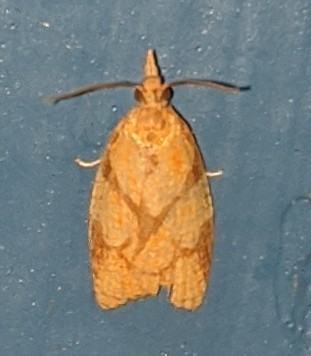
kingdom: Animalia
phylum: Arthropoda
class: Insecta
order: Lepidoptera
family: Tortricidae
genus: Cenopis
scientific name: Cenopis reticulatana
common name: Reticulated fruitworm moth
